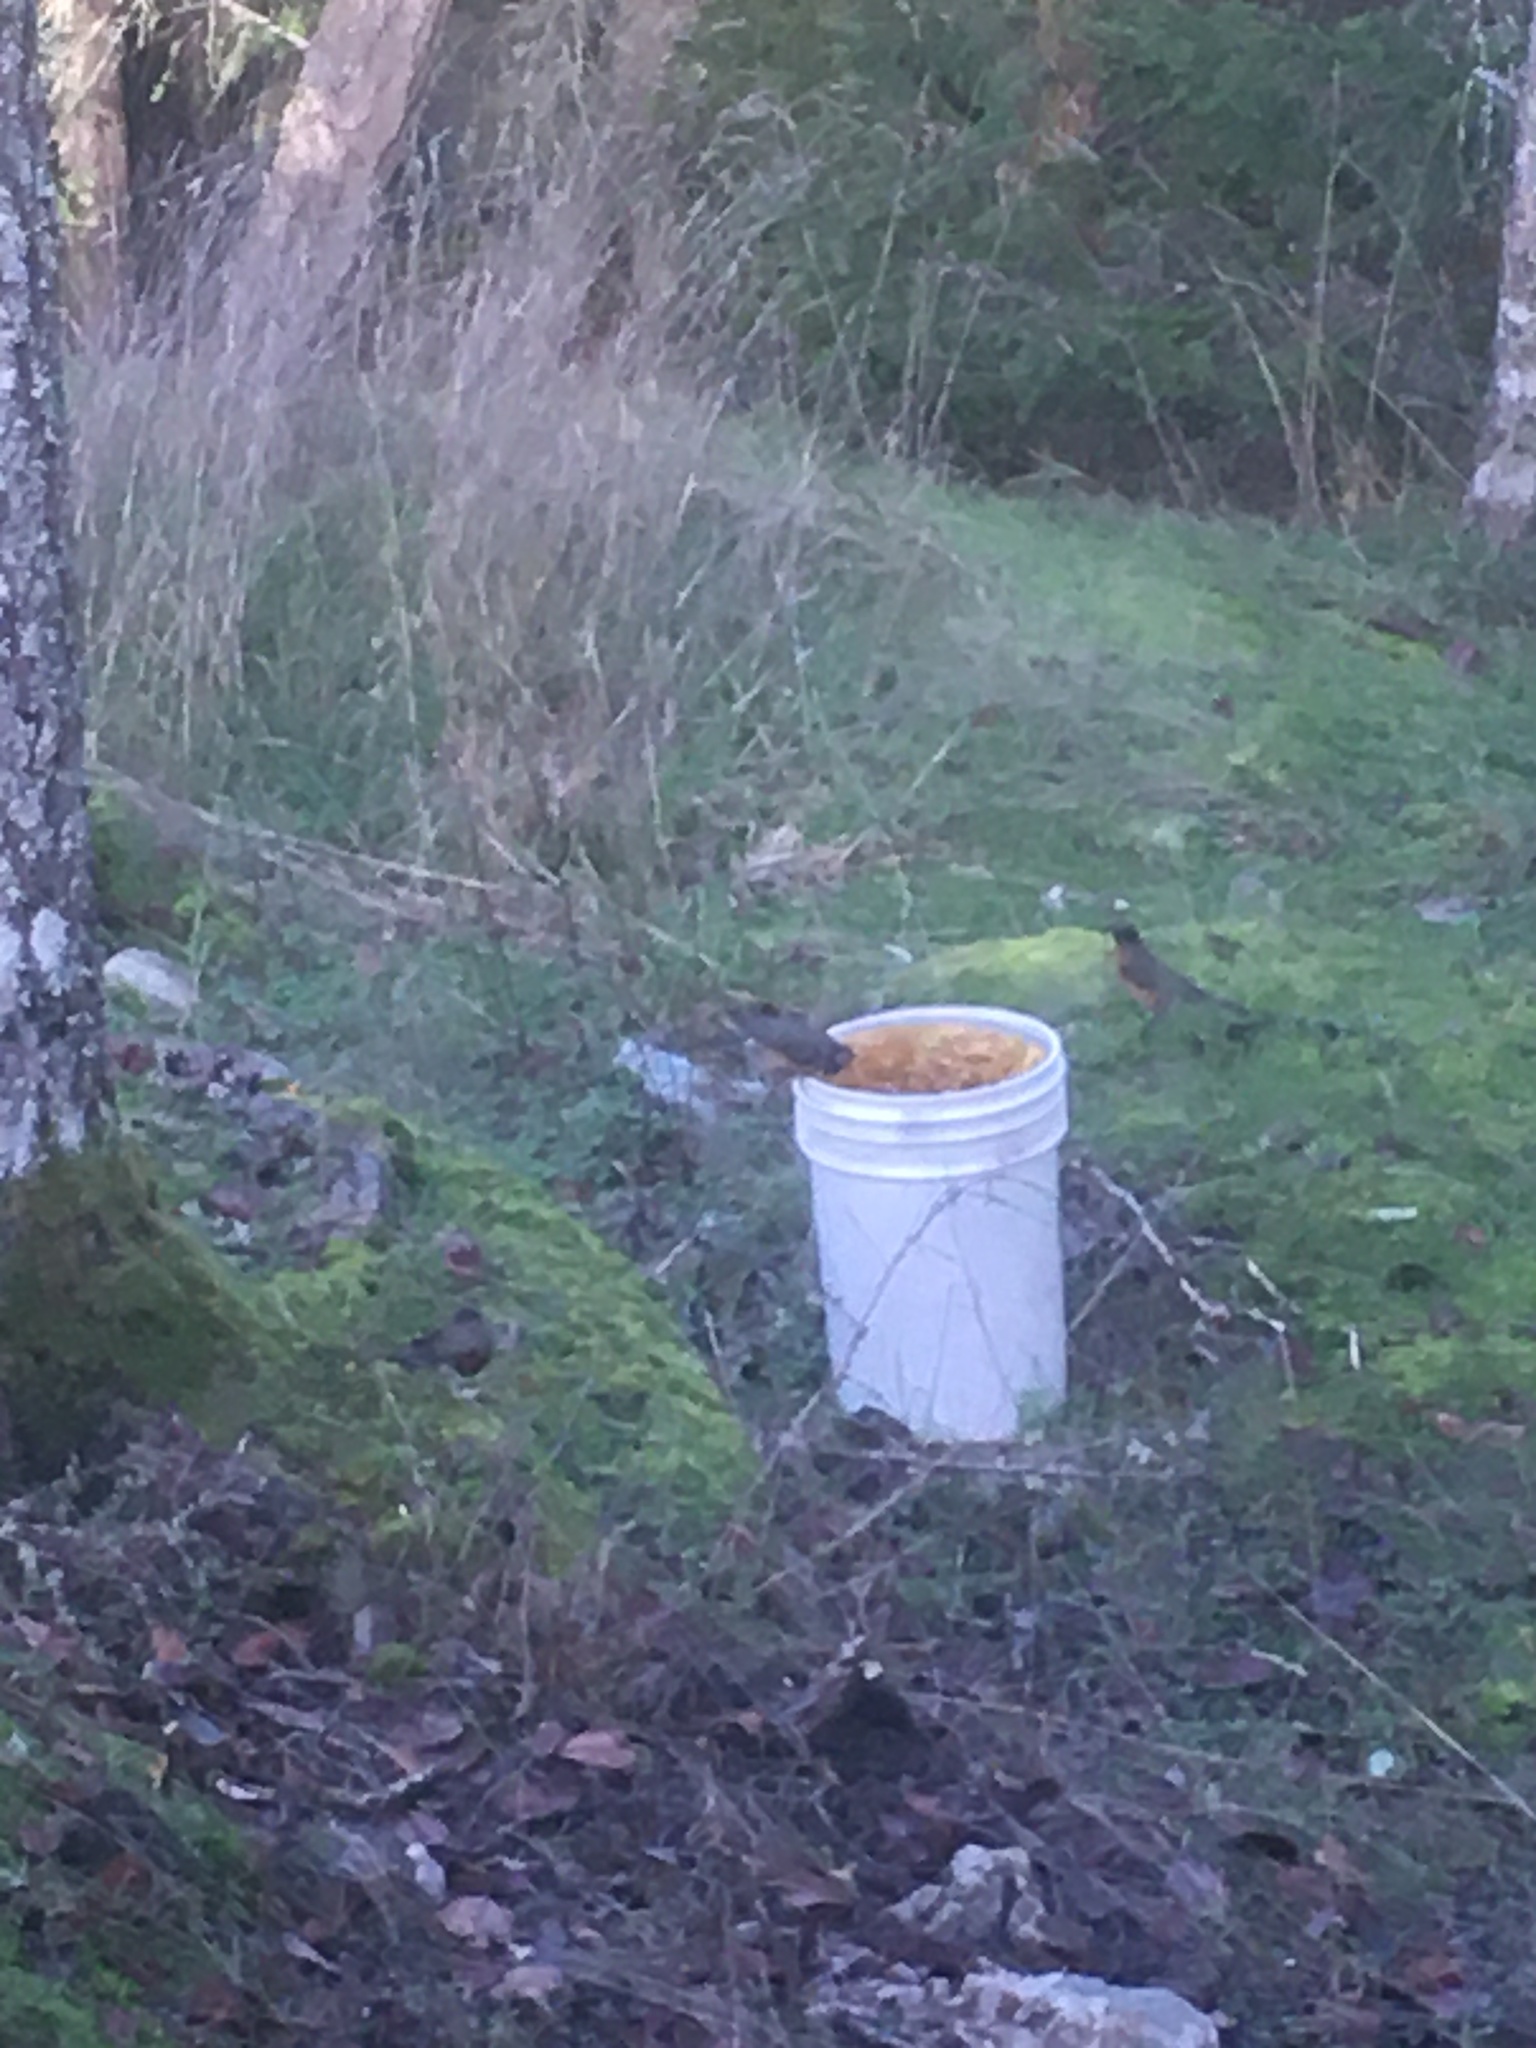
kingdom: Animalia
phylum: Chordata
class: Aves
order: Passeriformes
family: Turdidae
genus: Turdus
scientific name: Turdus migratorius
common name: American robin
